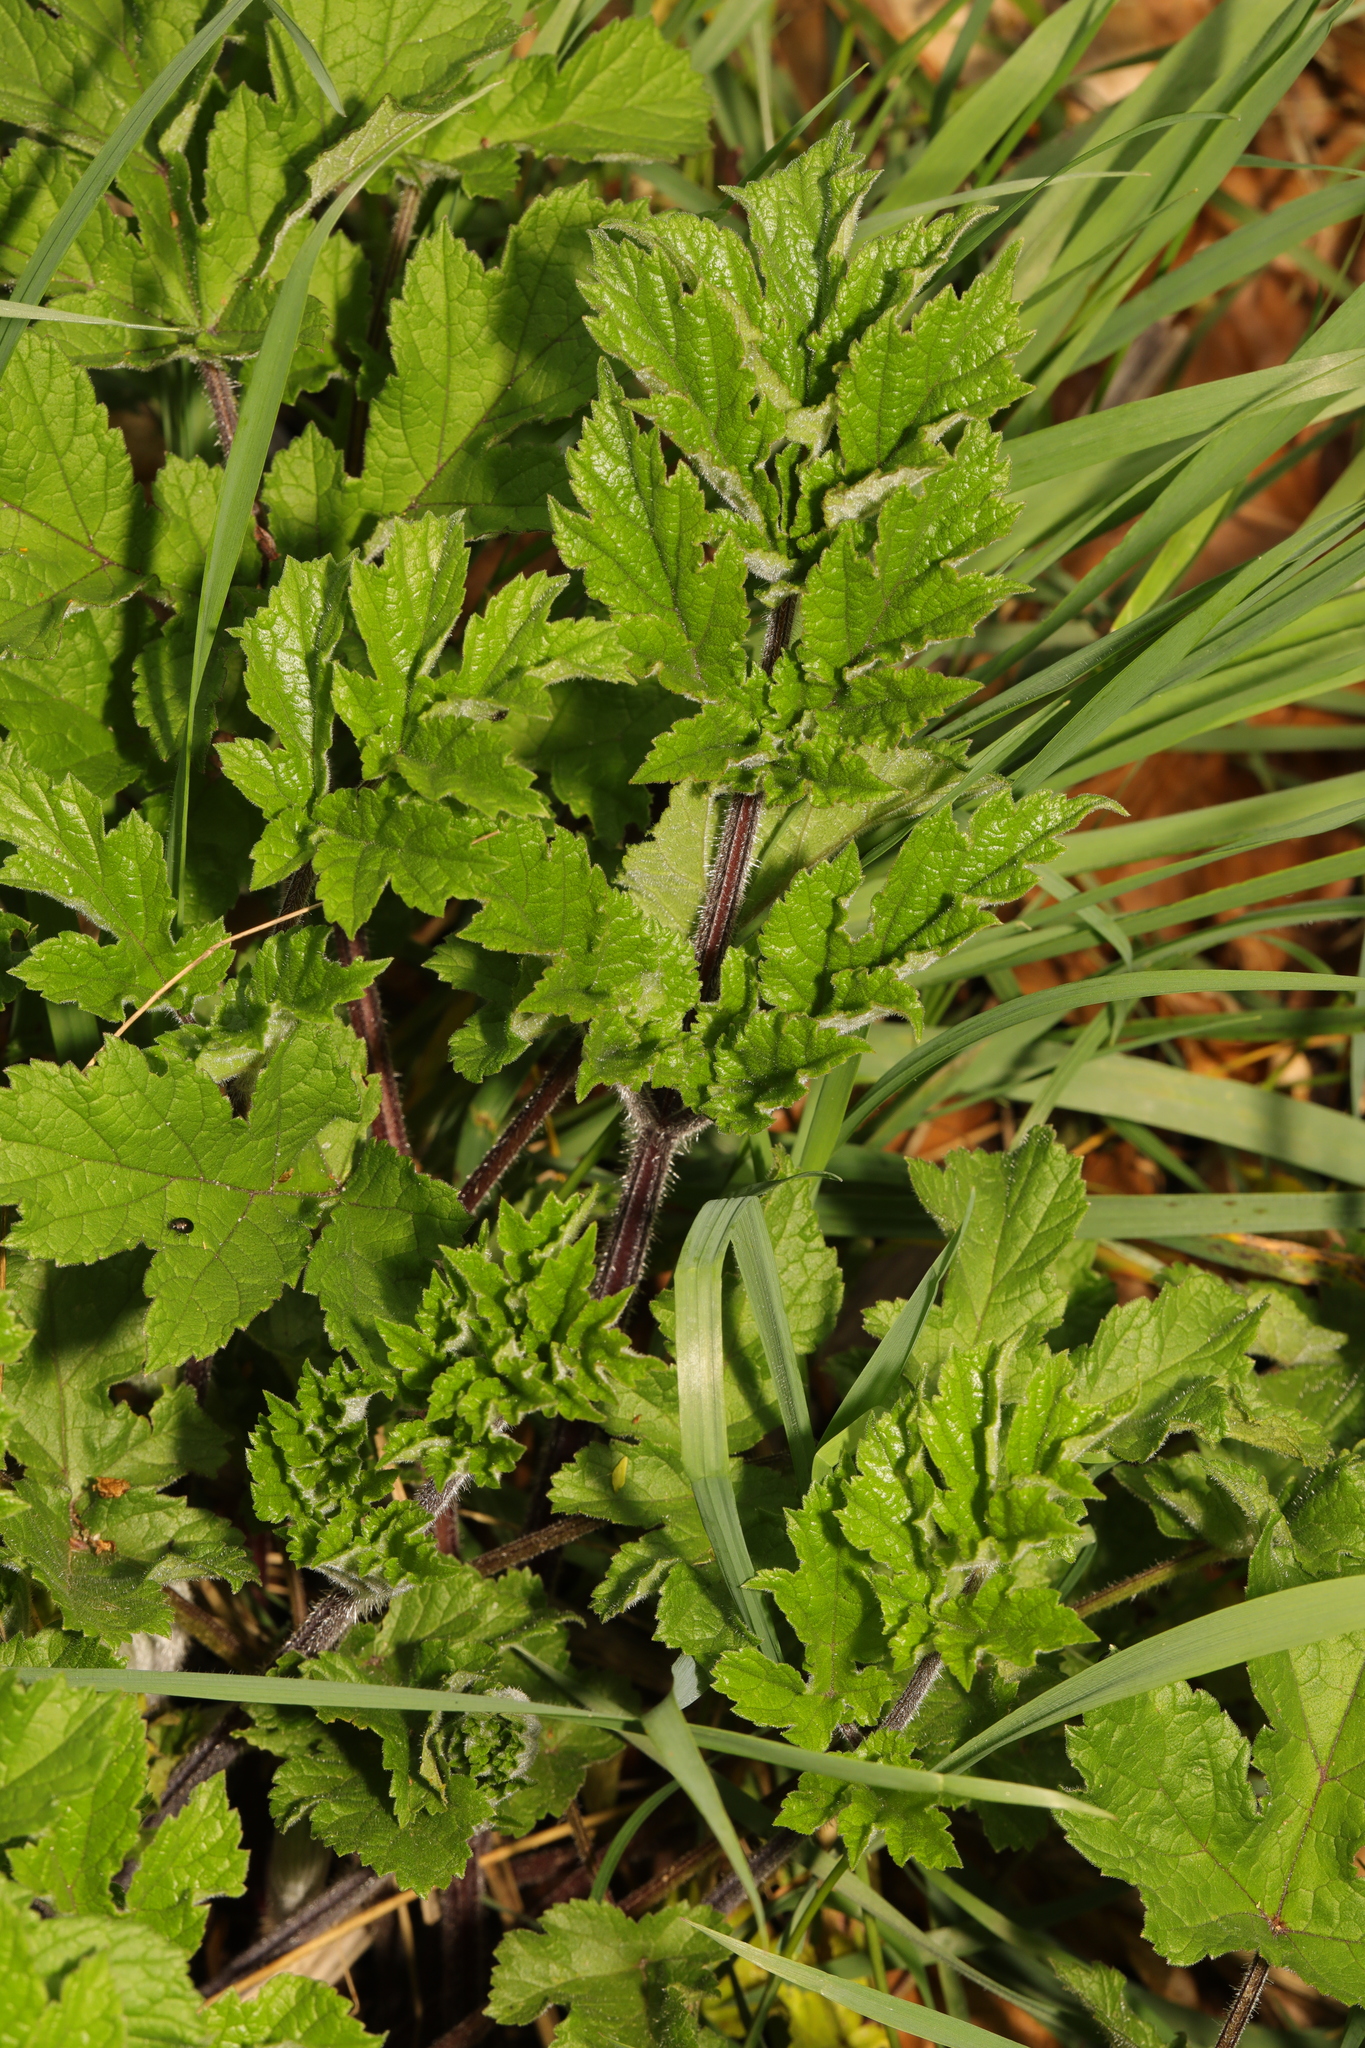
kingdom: Plantae
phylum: Tracheophyta
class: Magnoliopsida
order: Apiales
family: Apiaceae
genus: Heracleum
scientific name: Heracleum sphondylium
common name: Hogweed
